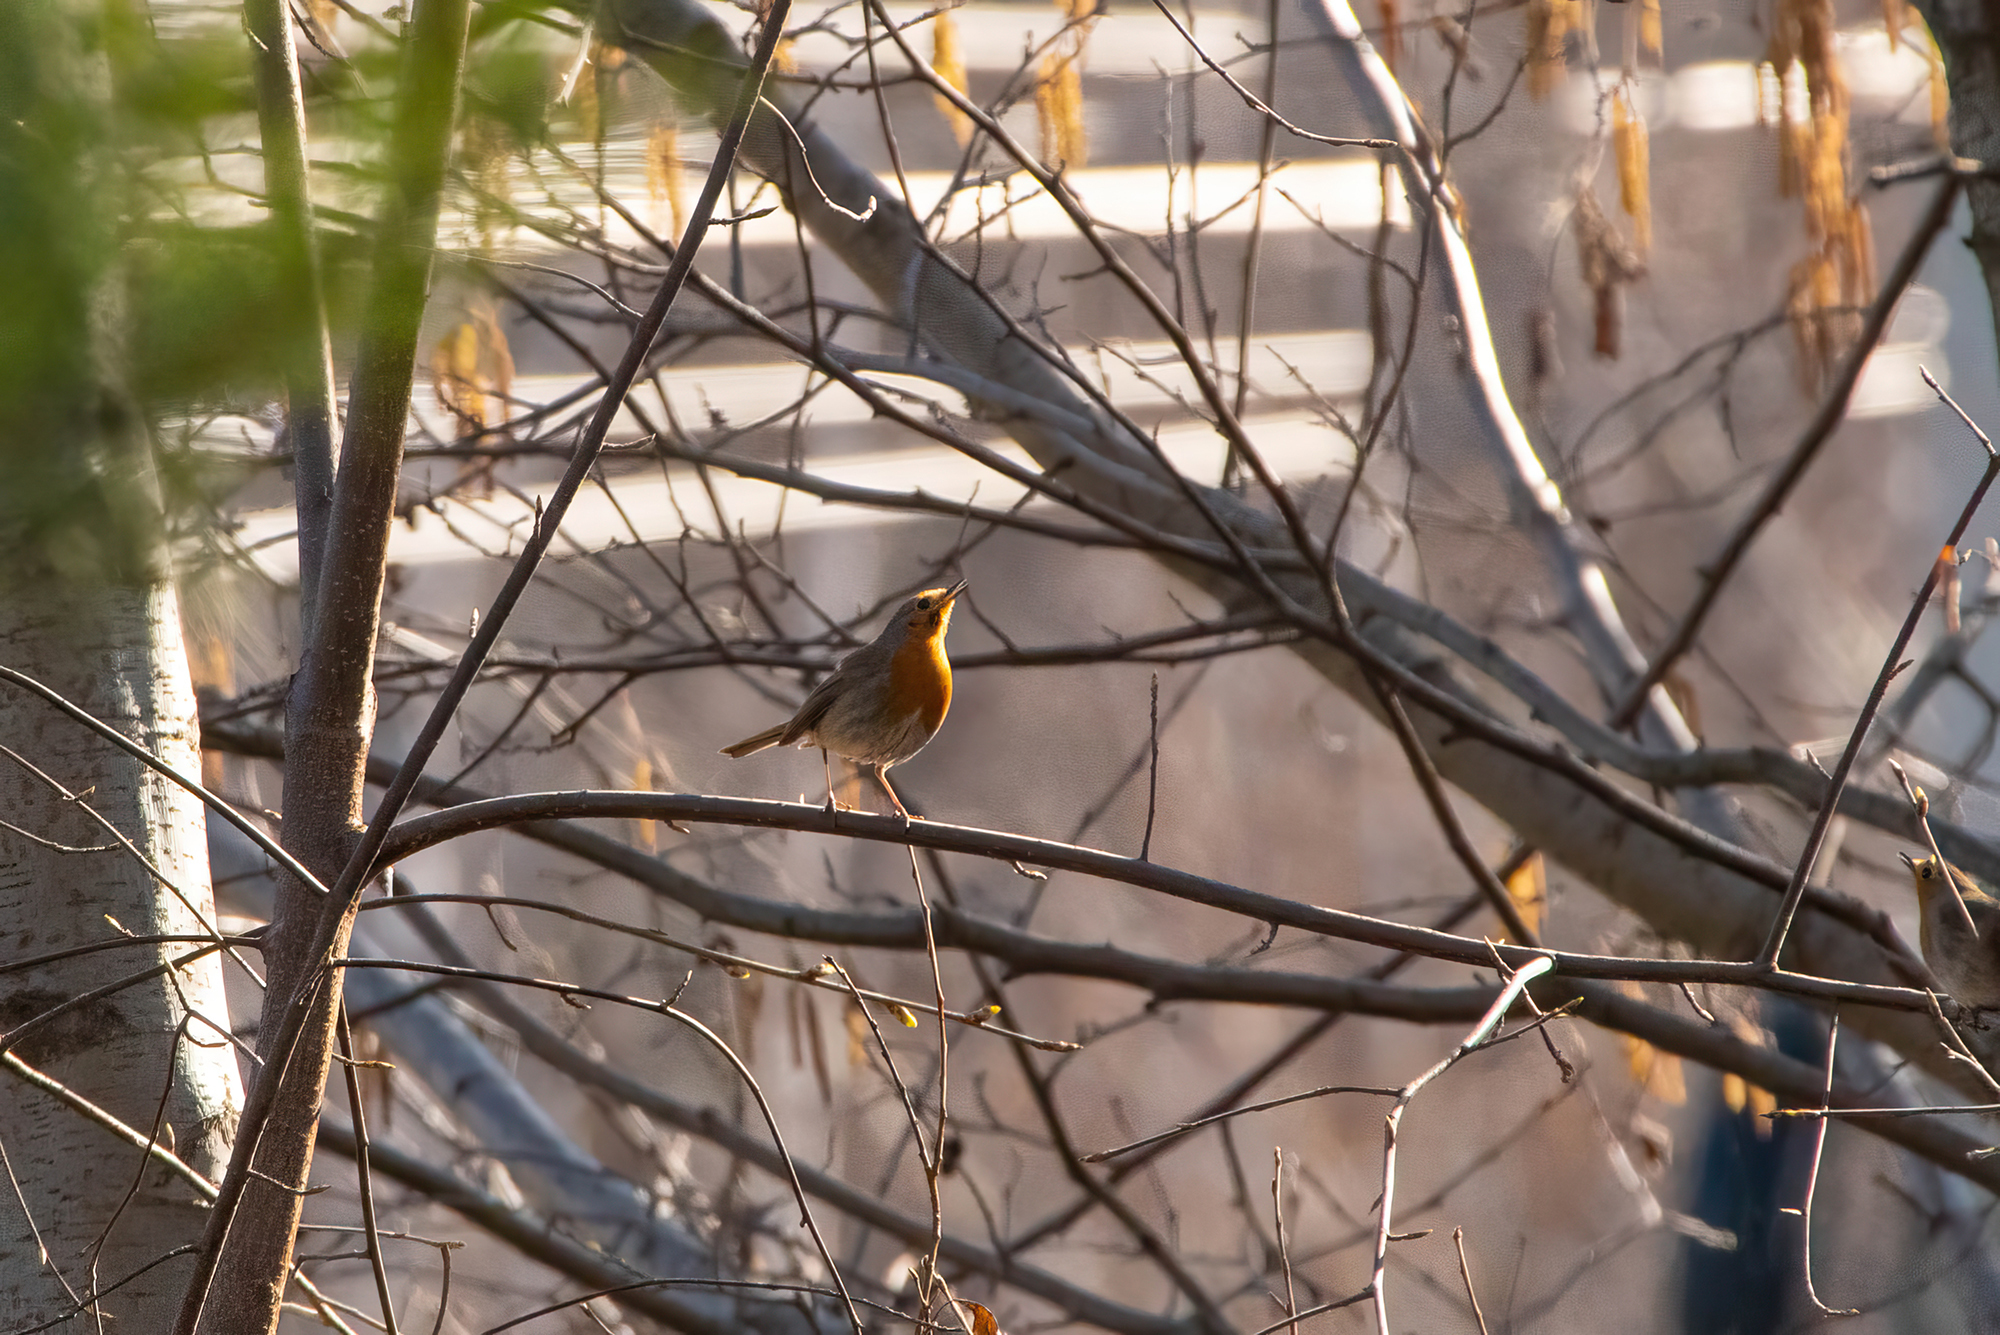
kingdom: Animalia
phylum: Chordata
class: Aves
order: Passeriformes
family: Muscicapidae
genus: Erithacus
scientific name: Erithacus rubecula
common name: European robin
